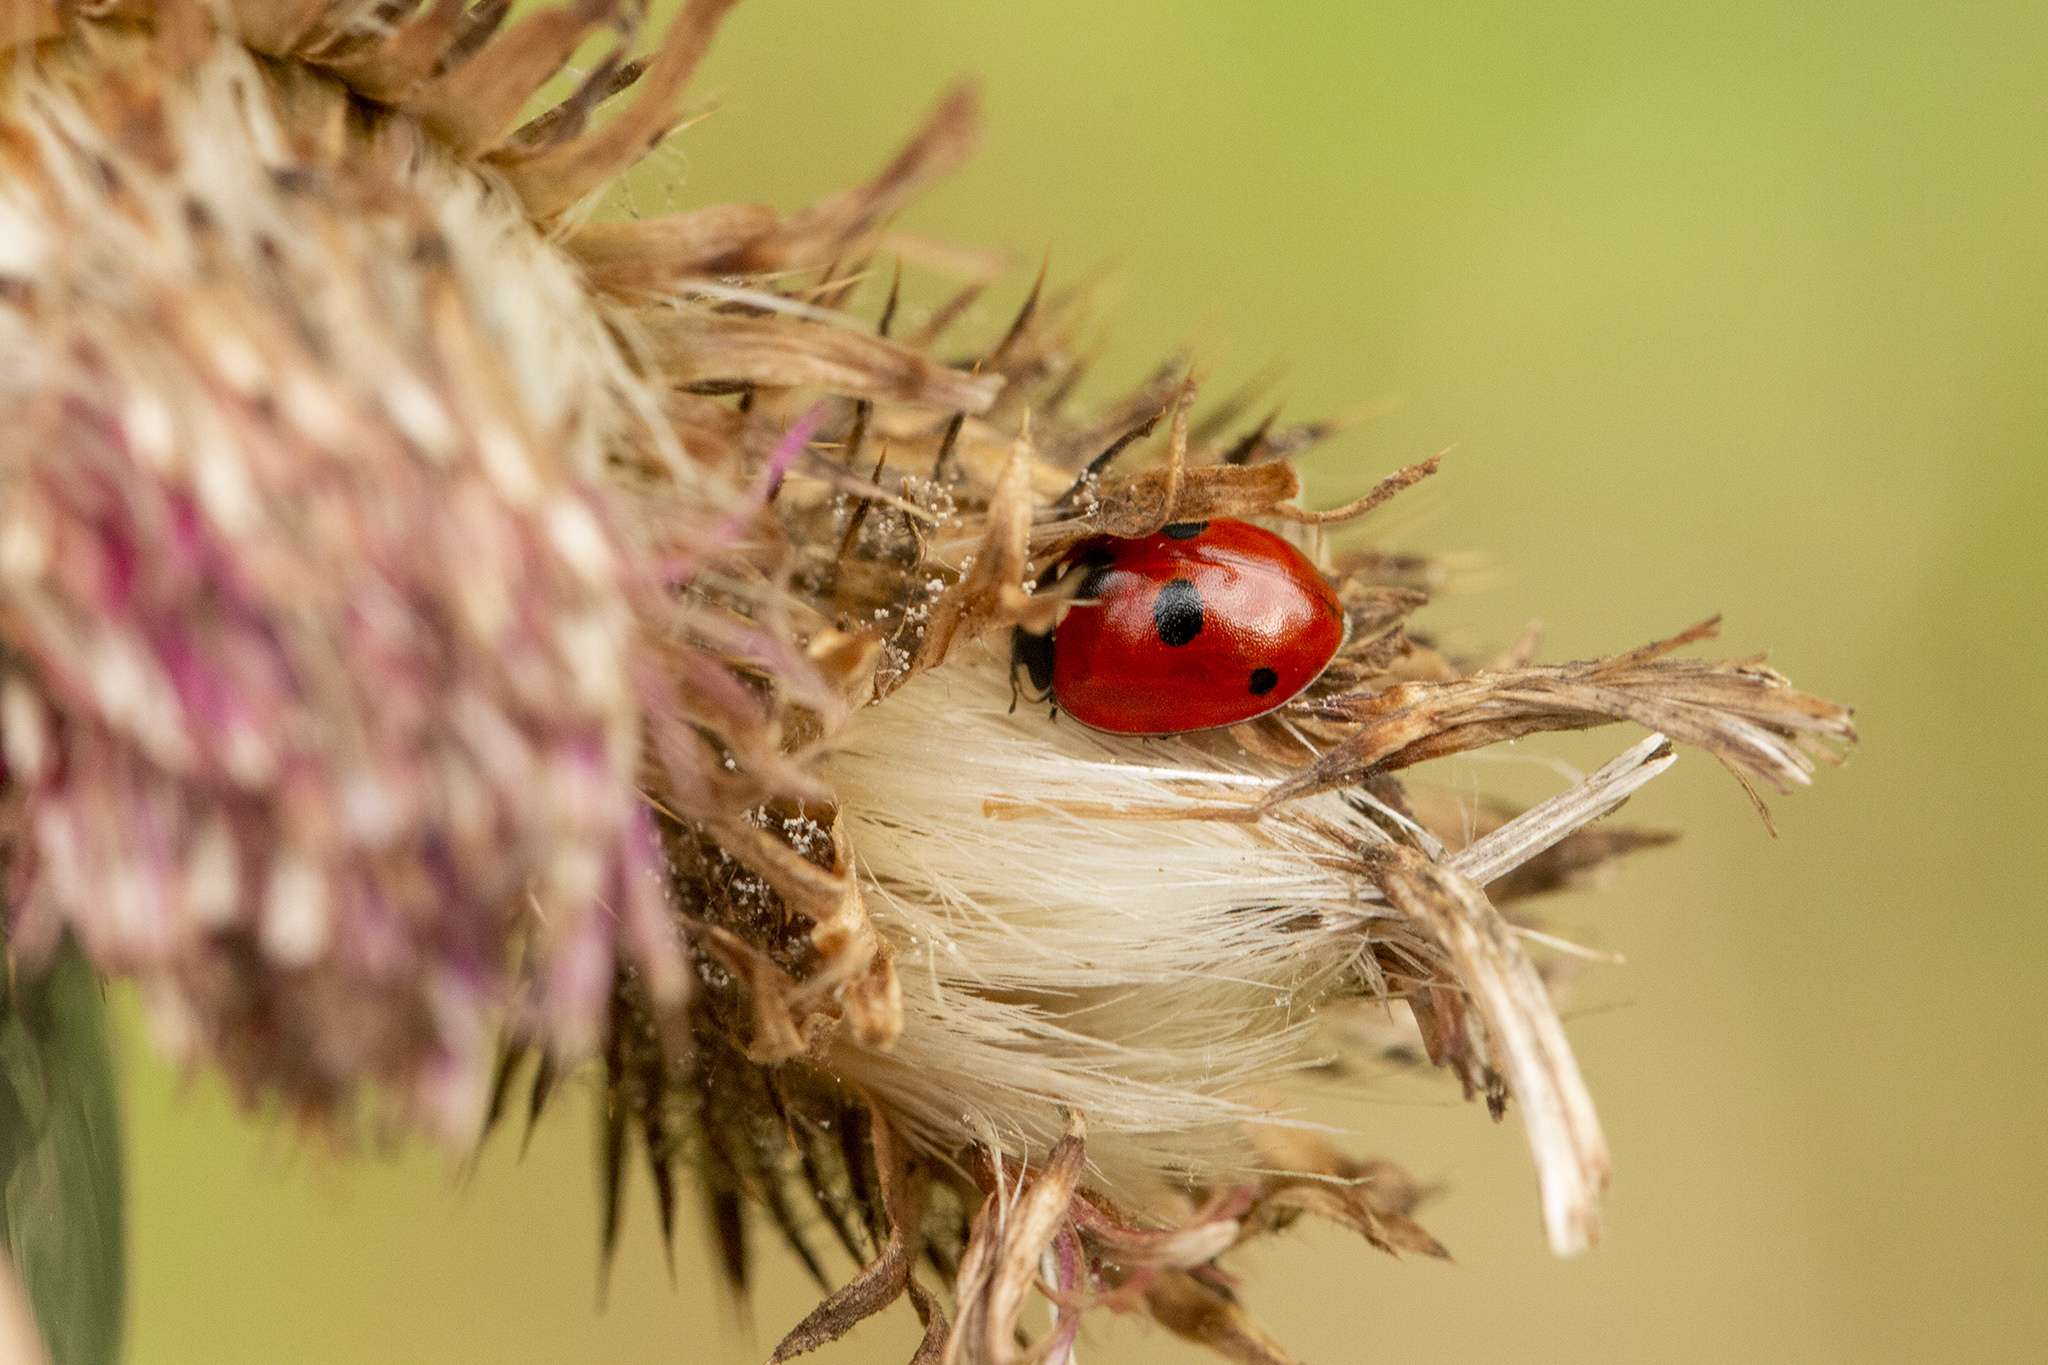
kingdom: Animalia
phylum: Arthropoda
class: Insecta
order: Coleoptera
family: Coccinellidae
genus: Coccinella
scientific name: Coccinella quinquepunctata
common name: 5-spot ladybird
